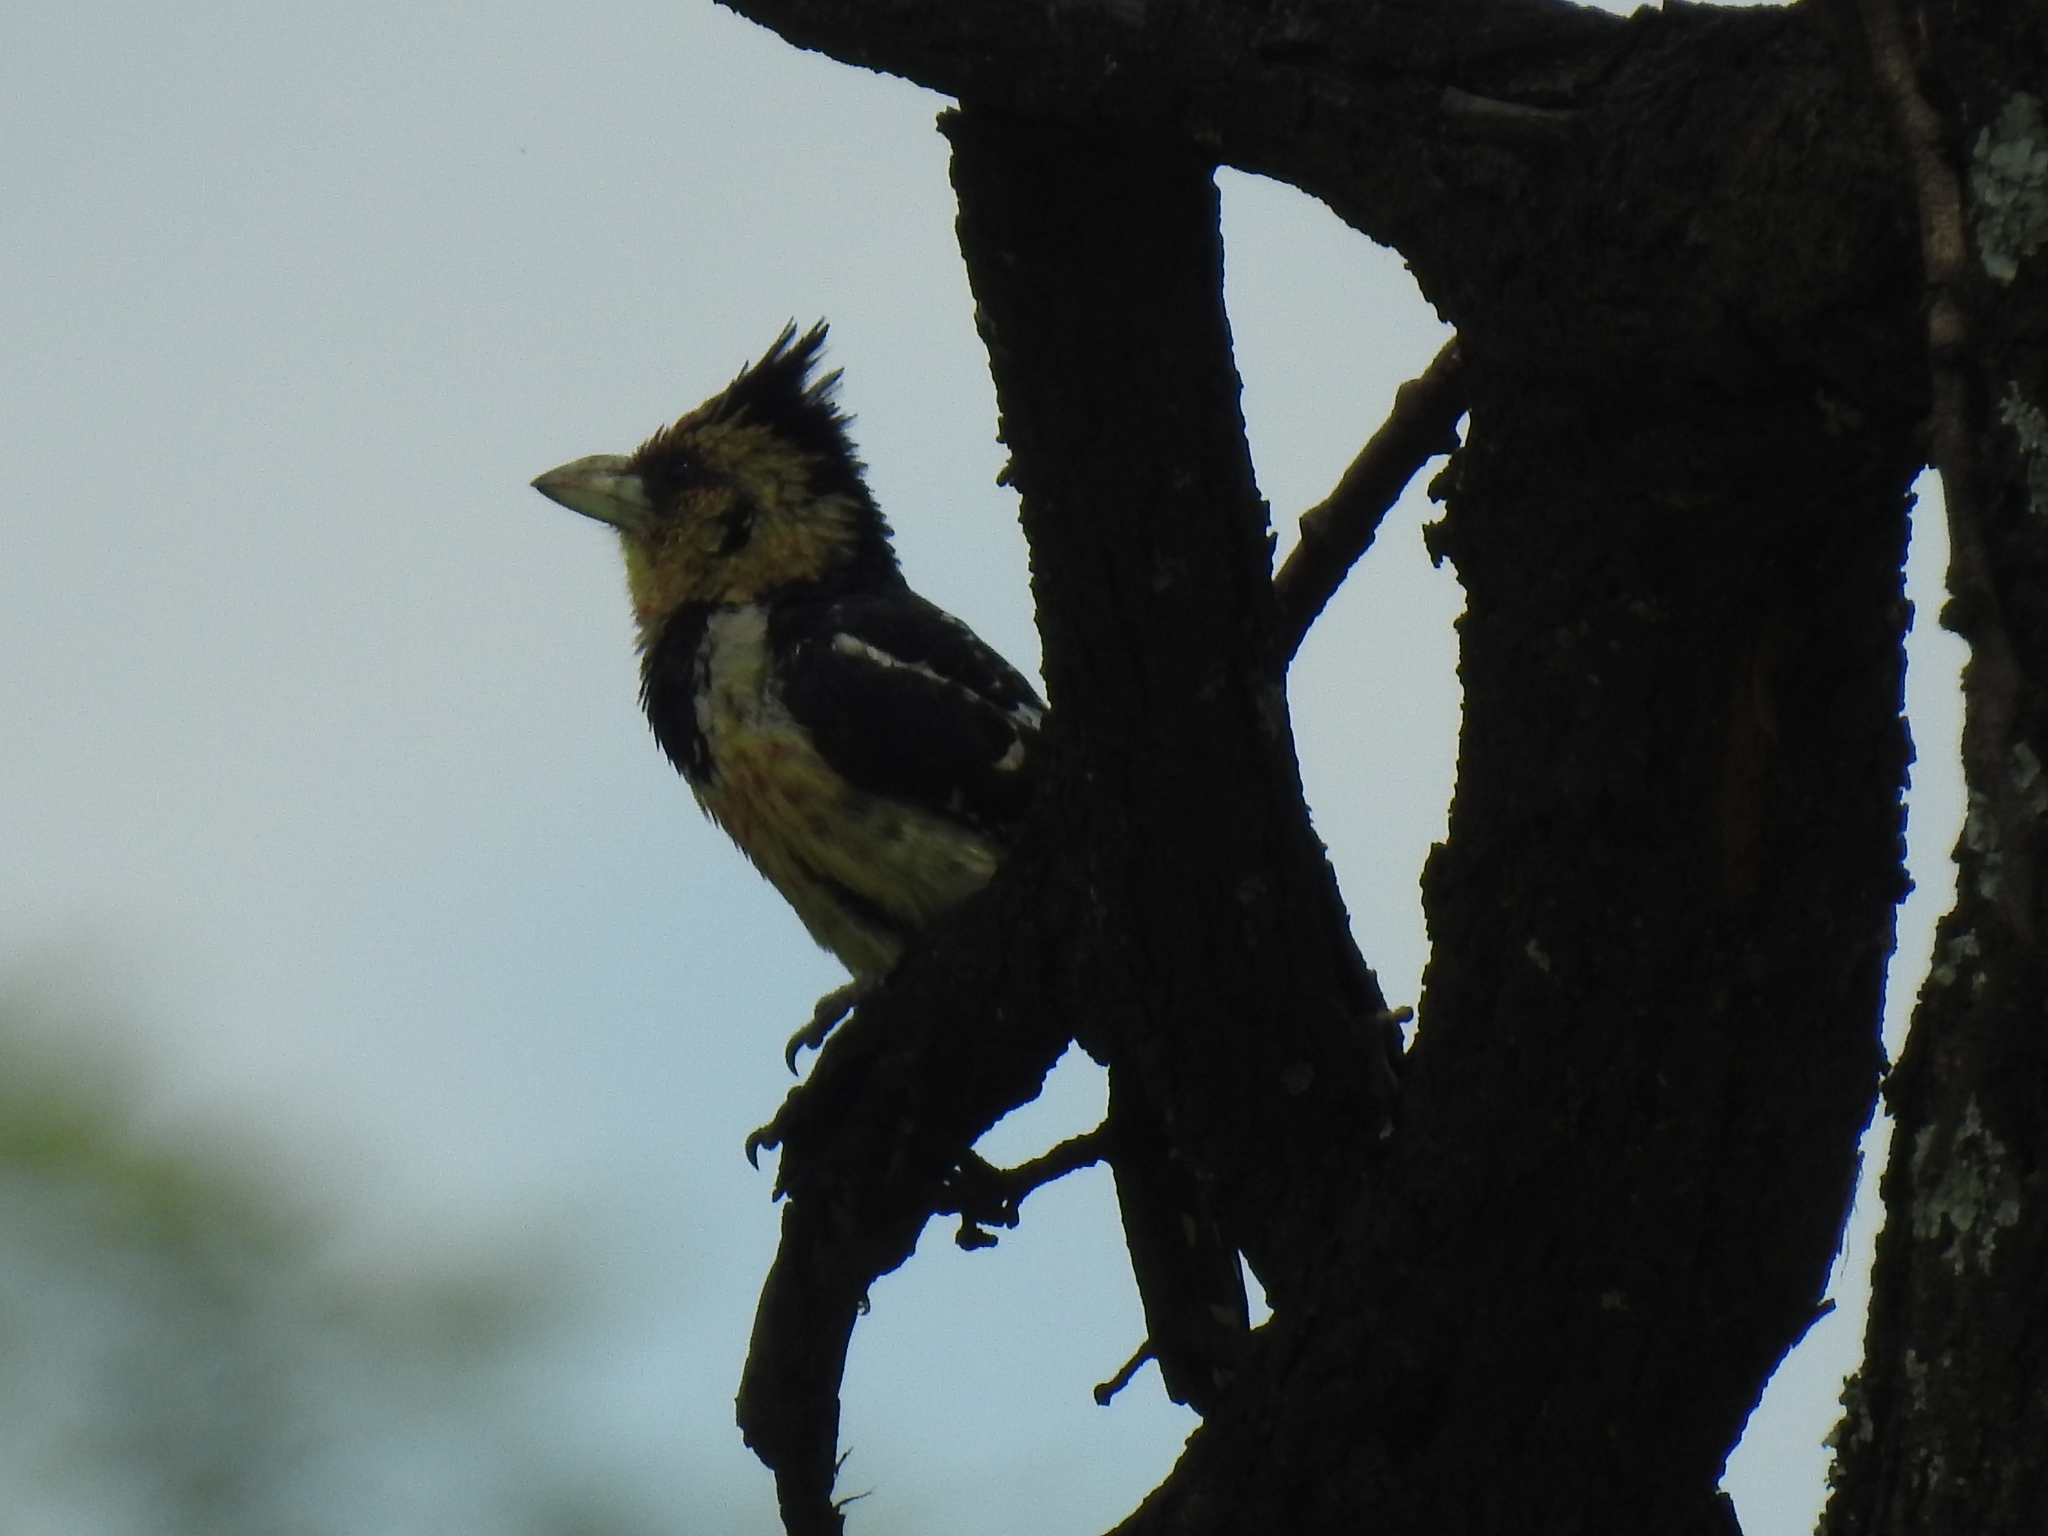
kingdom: Animalia
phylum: Chordata
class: Aves
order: Piciformes
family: Lybiidae
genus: Trachyphonus
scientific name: Trachyphonus vaillantii
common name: Crested barbet
